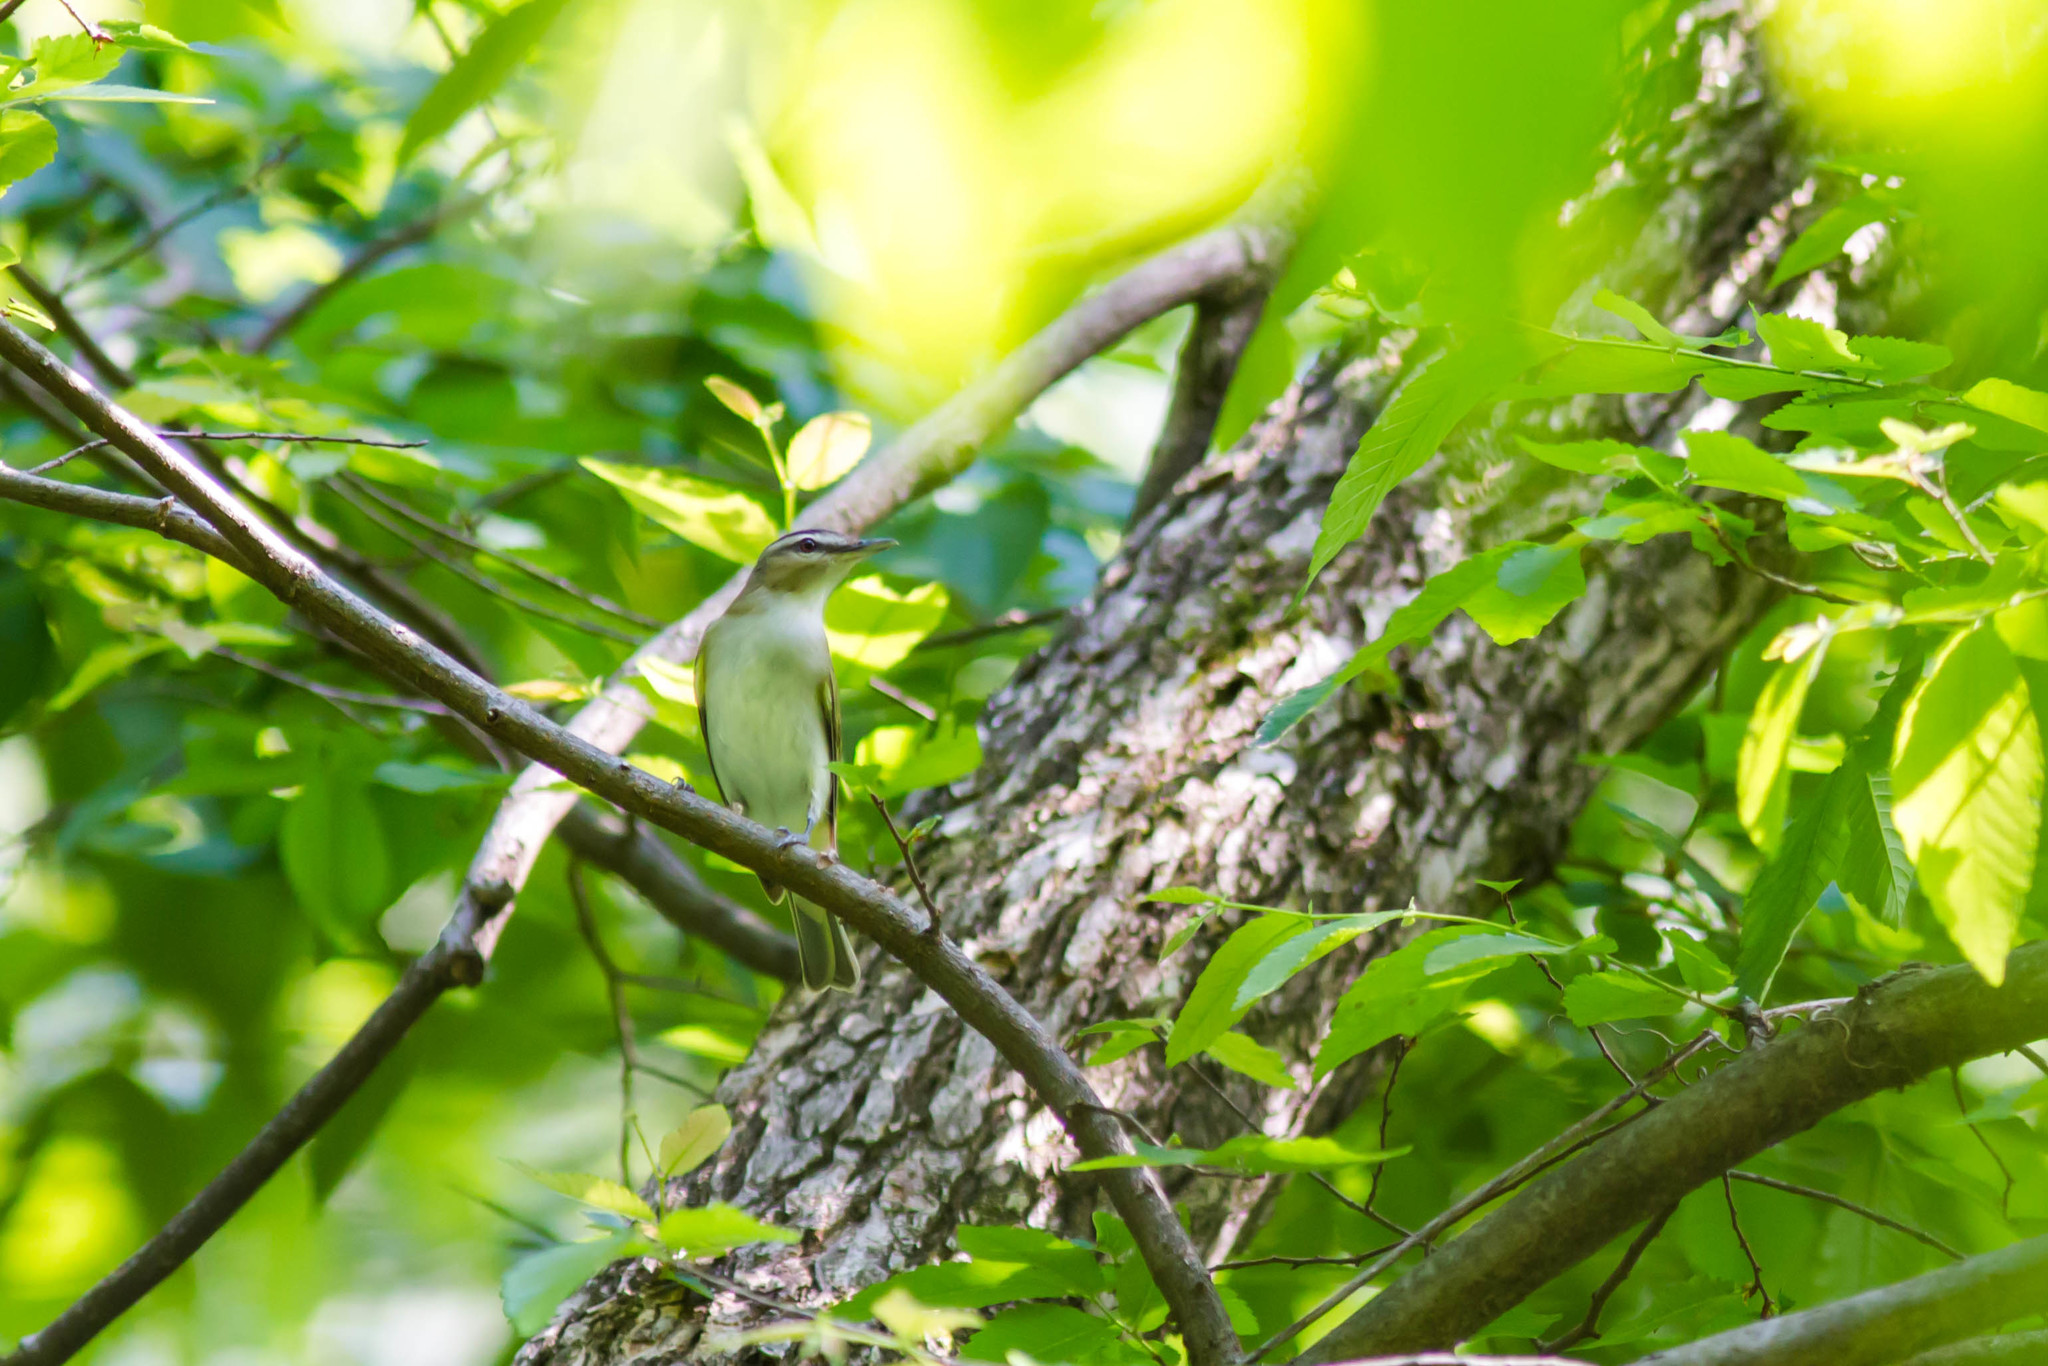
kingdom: Animalia
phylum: Chordata
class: Aves
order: Passeriformes
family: Vireonidae
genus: Vireo
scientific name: Vireo olivaceus
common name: Red-eyed vireo
